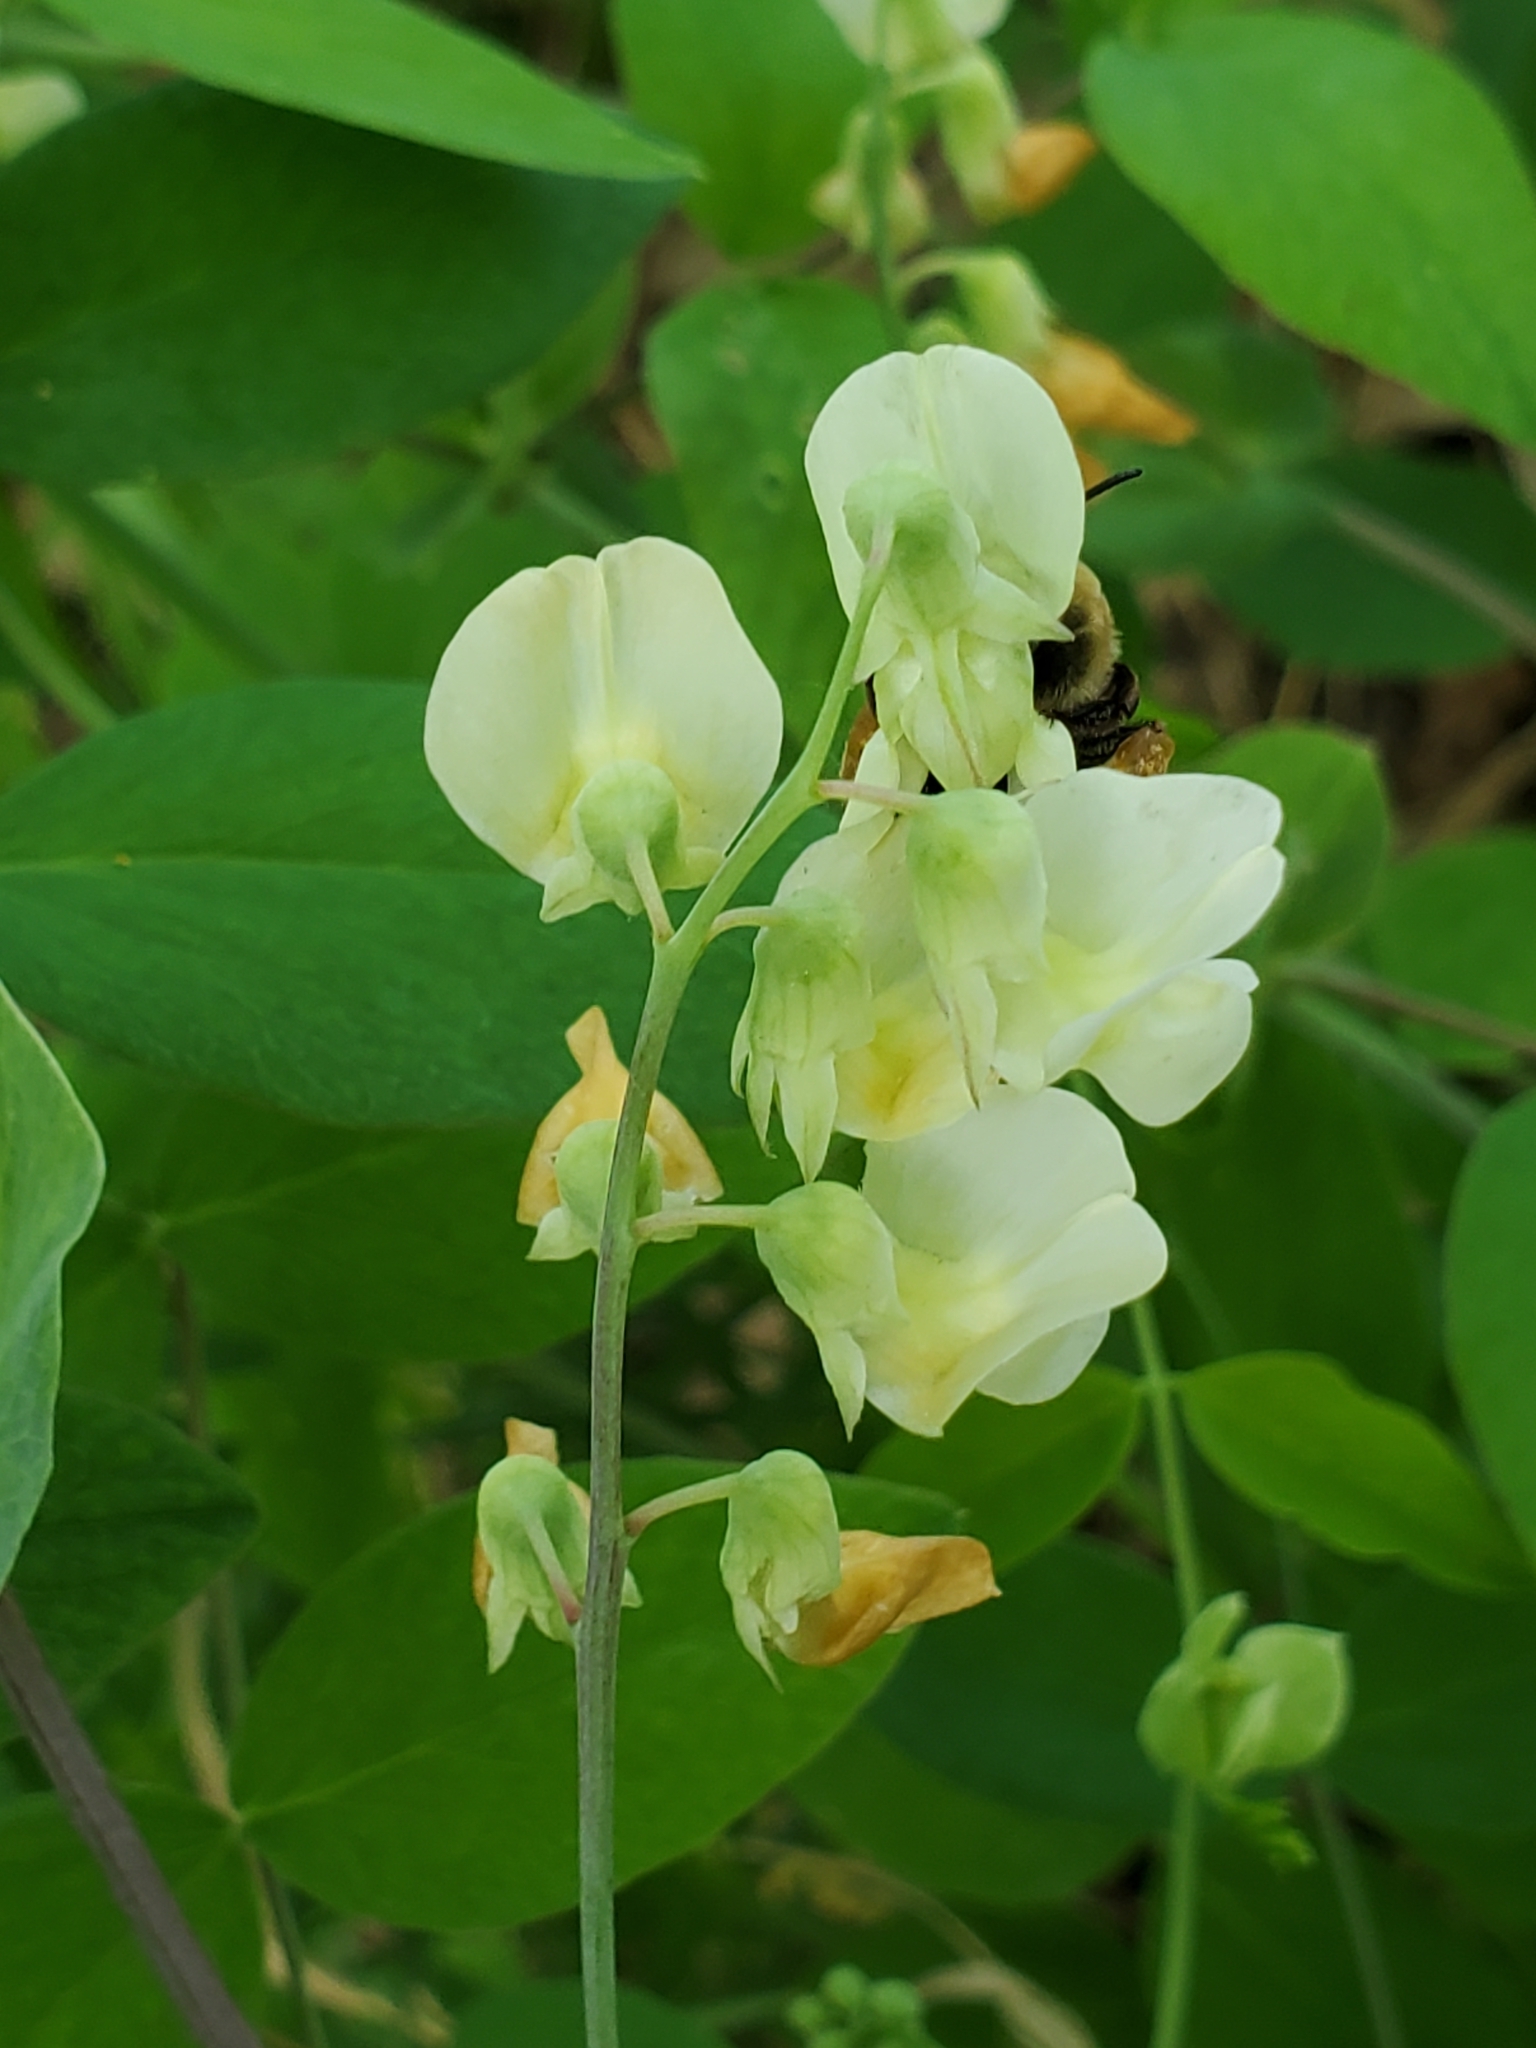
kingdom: Plantae
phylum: Tracheophyta
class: Magnoliopsida
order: Fabales
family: Fabaceae
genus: Lathyrus
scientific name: Lathyrus ochroleucus
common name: Pale vetchling
